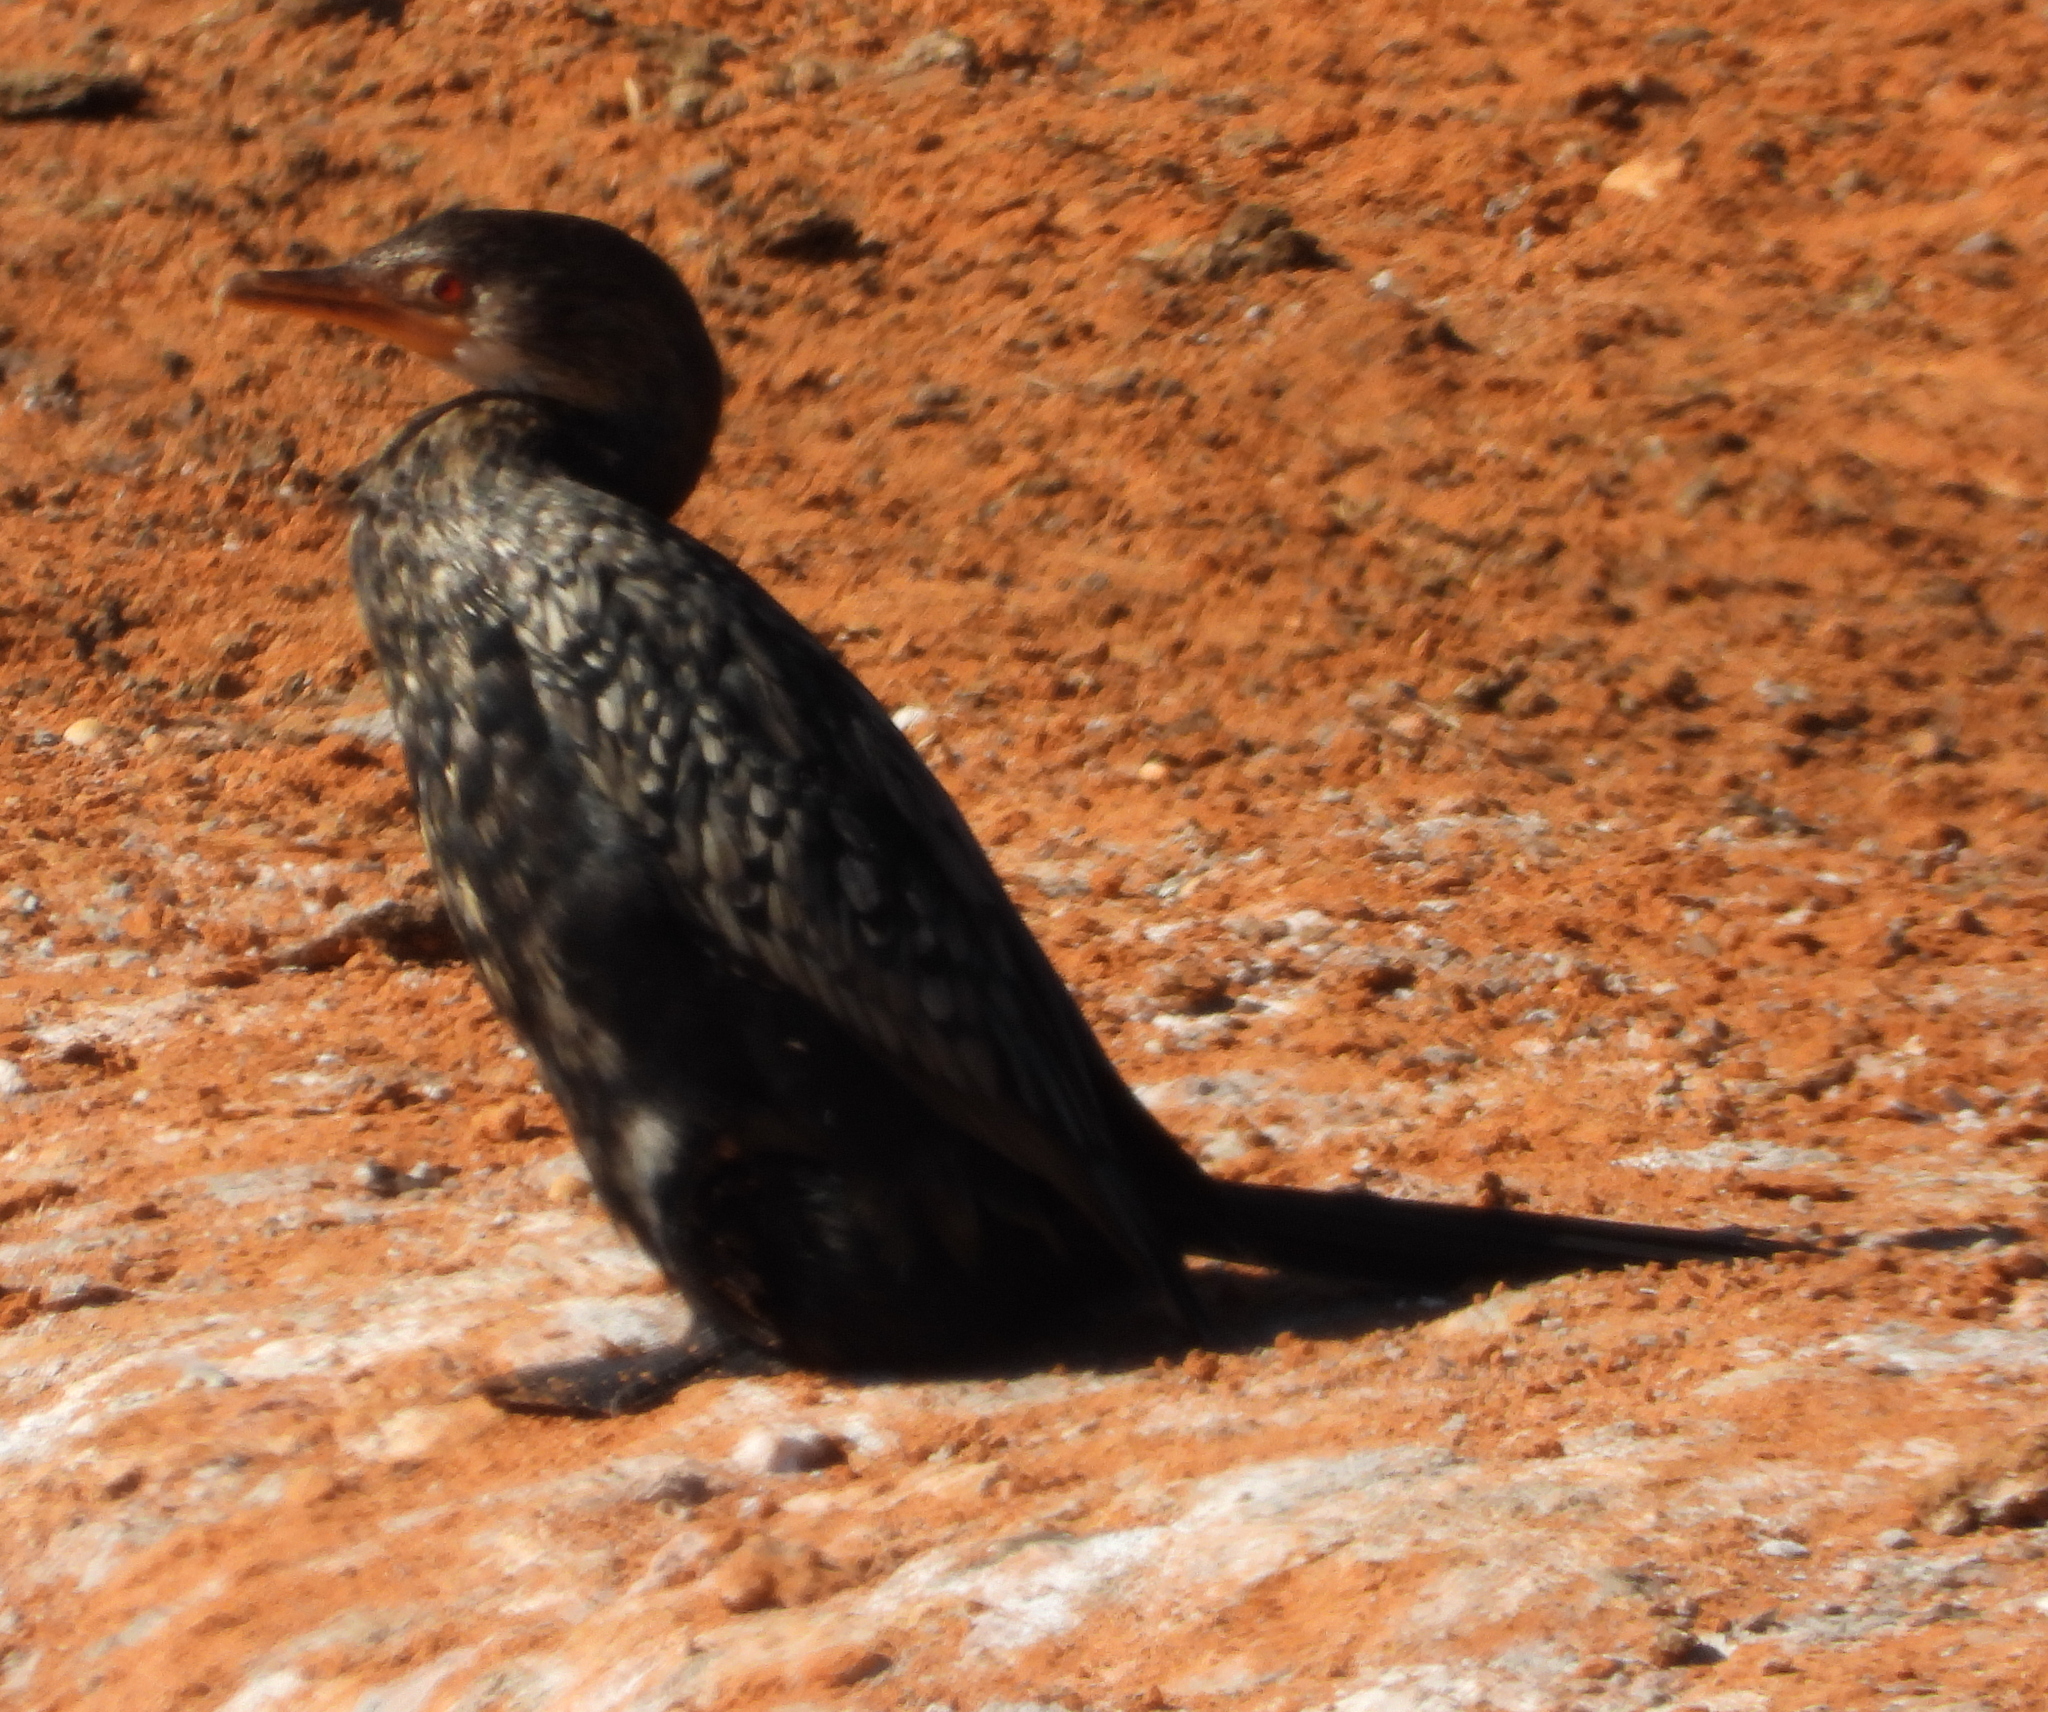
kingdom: Animalia
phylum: Chordata
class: Aves
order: Suliformes
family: Phalacrocoracidae
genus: Microcarbo
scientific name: Microcarbo africanus
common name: Long-tailed cormorant
